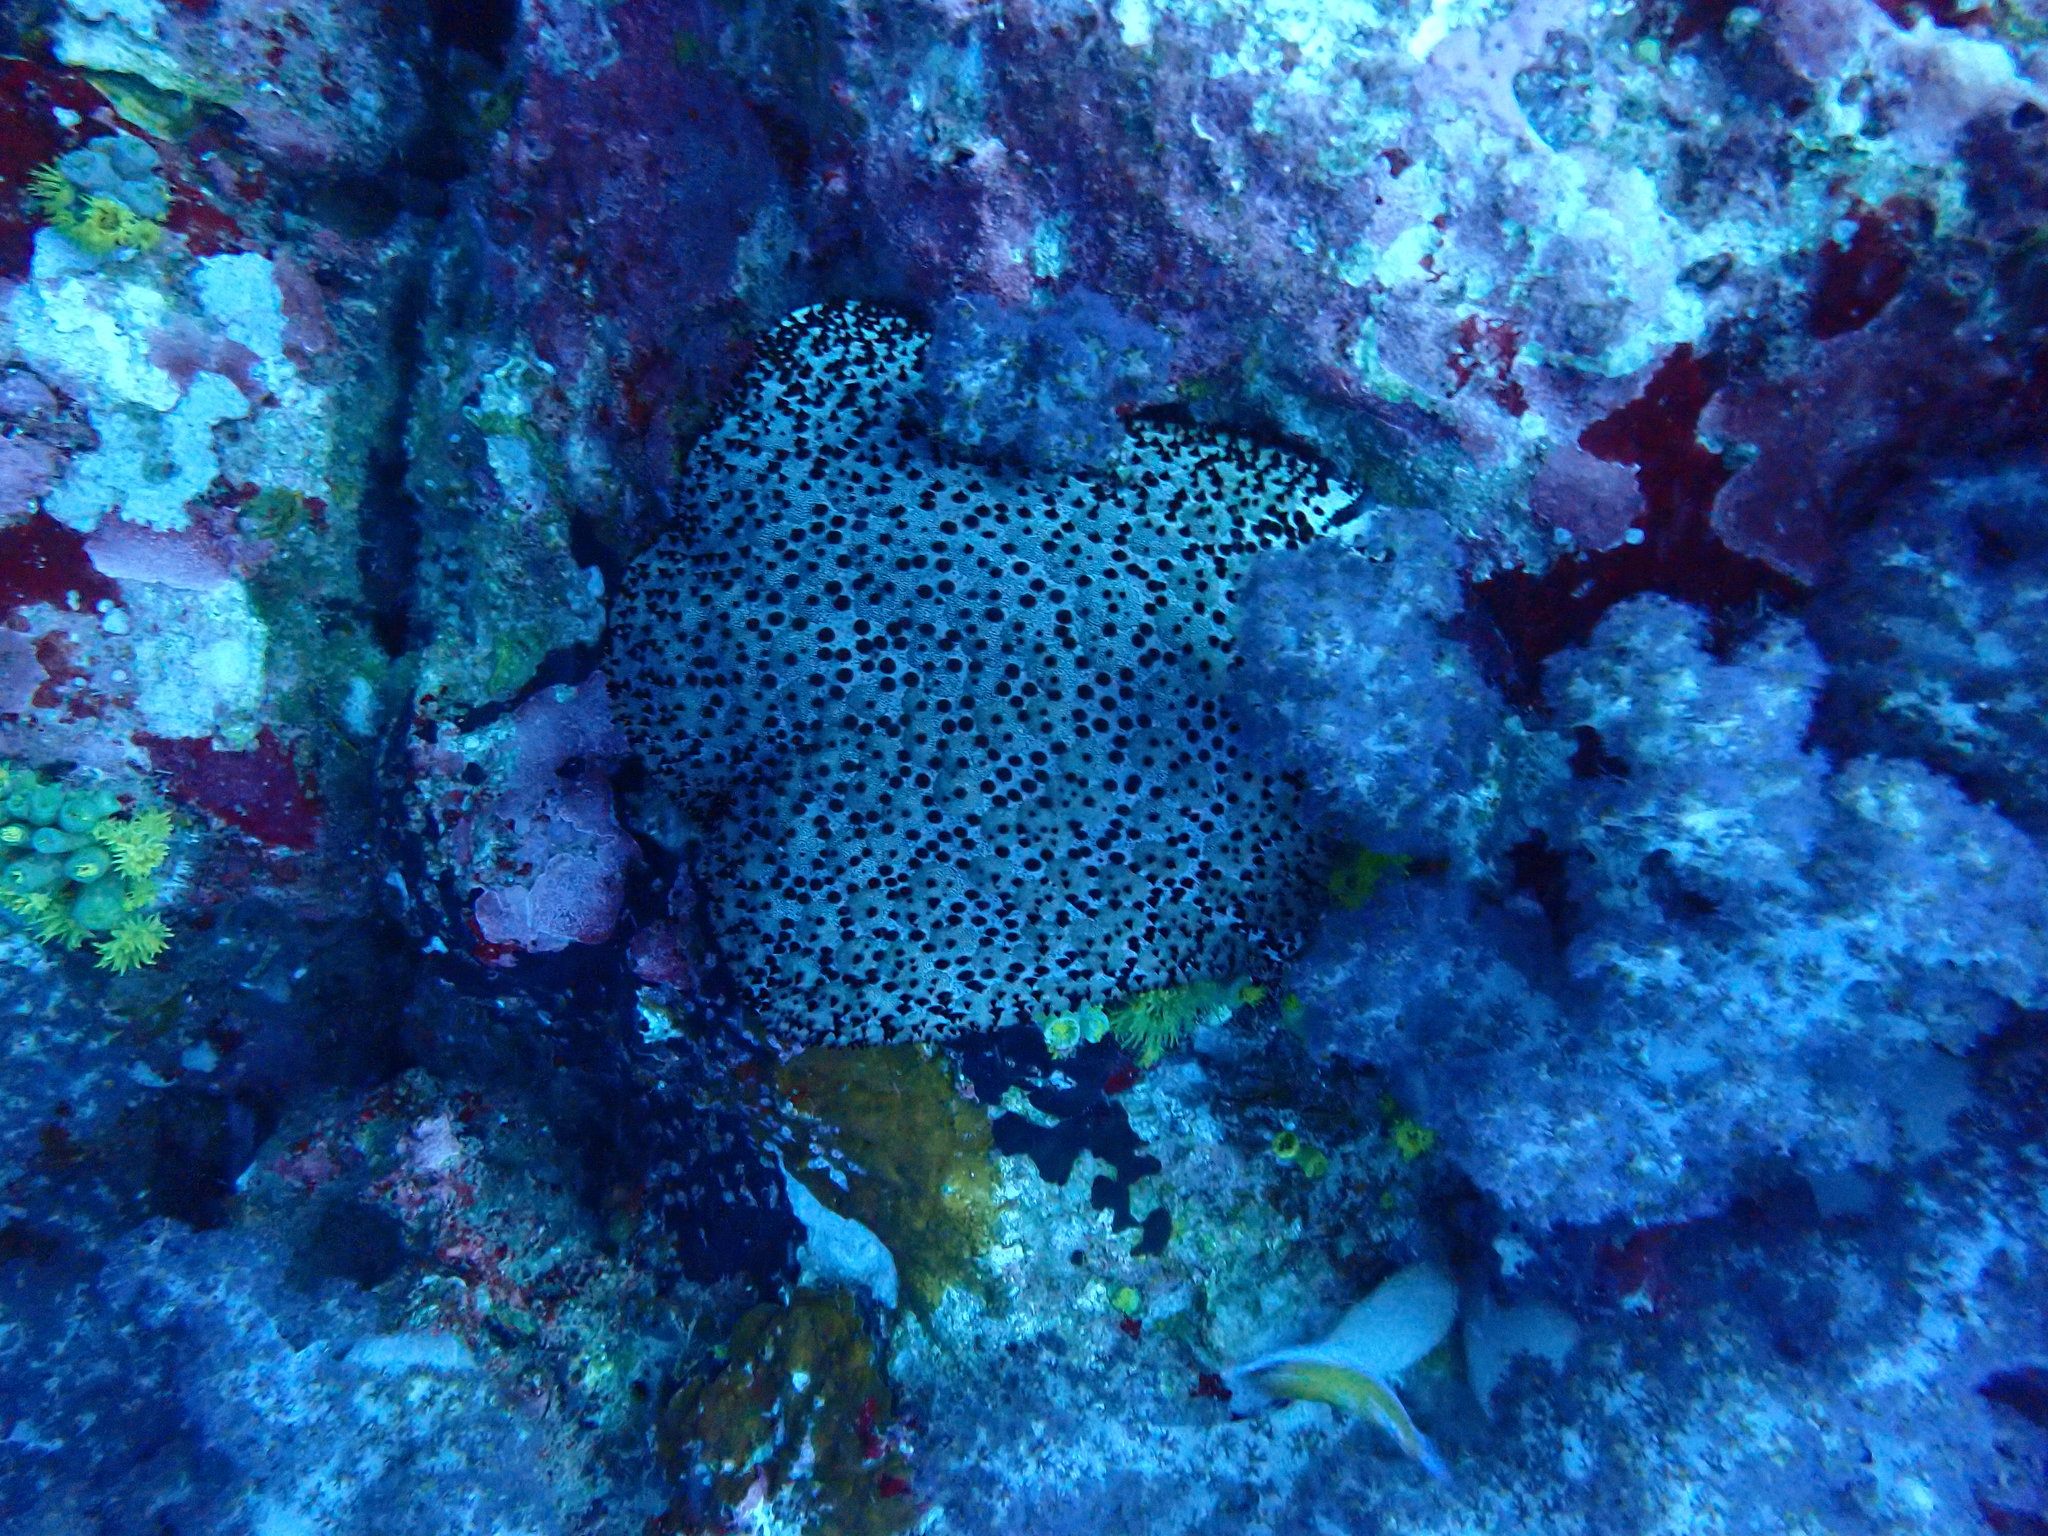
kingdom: Animalia
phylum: Echinodermata
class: Asteroidea
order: Valvatida
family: Oreasteridae
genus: Culcita
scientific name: Culcita schmideliana
